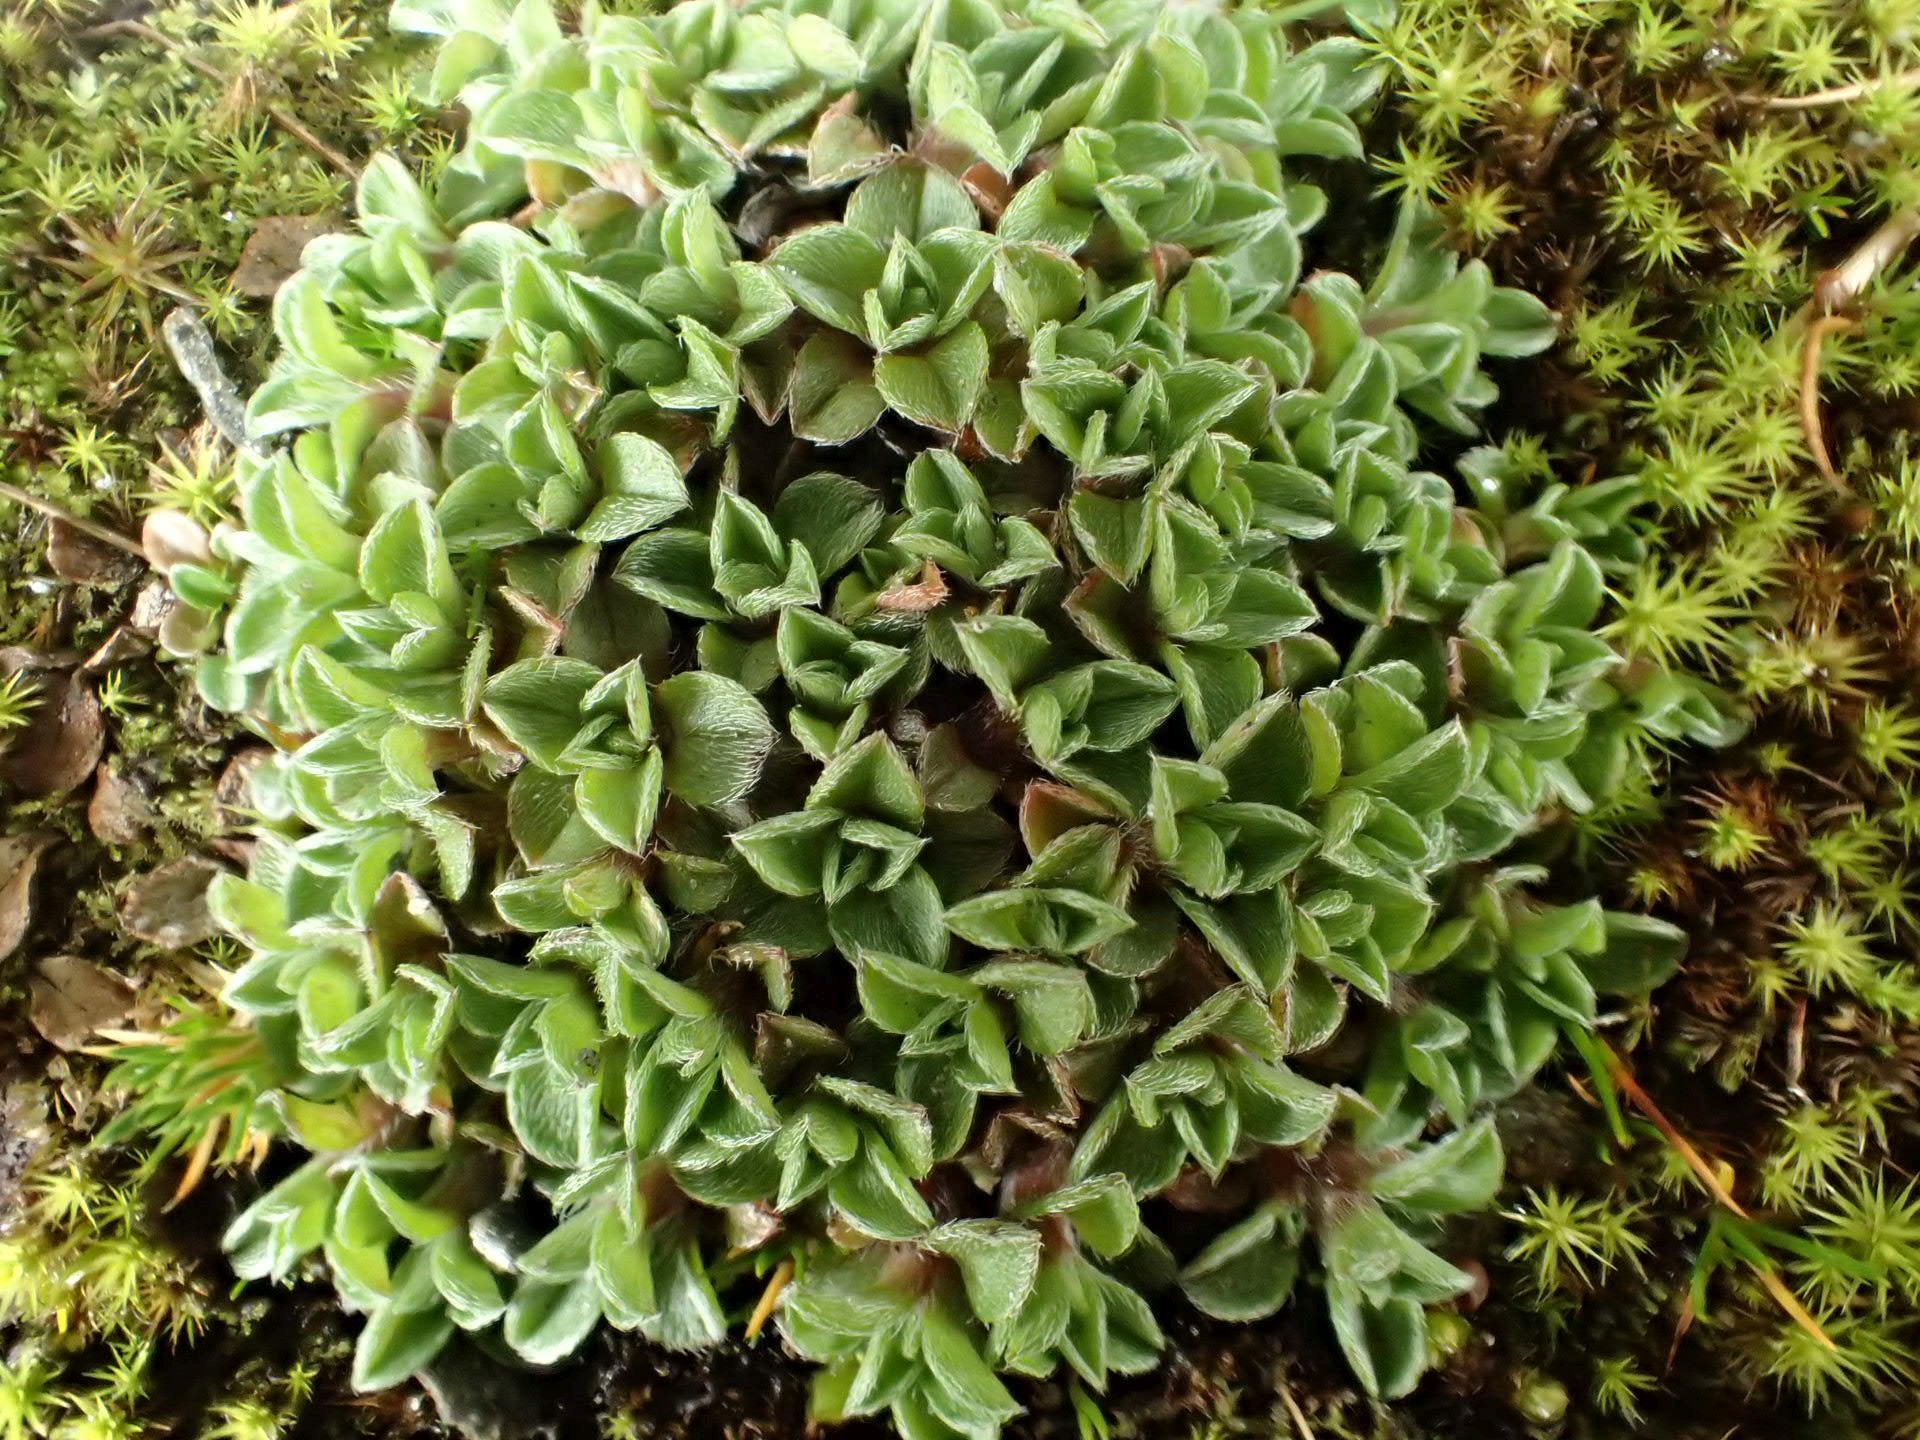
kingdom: Plantae
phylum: Tracheophyta
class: Magnoliopsida
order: Boraginales
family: Boraginaceae
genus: Myosotis
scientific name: Myosotis glabrescens
